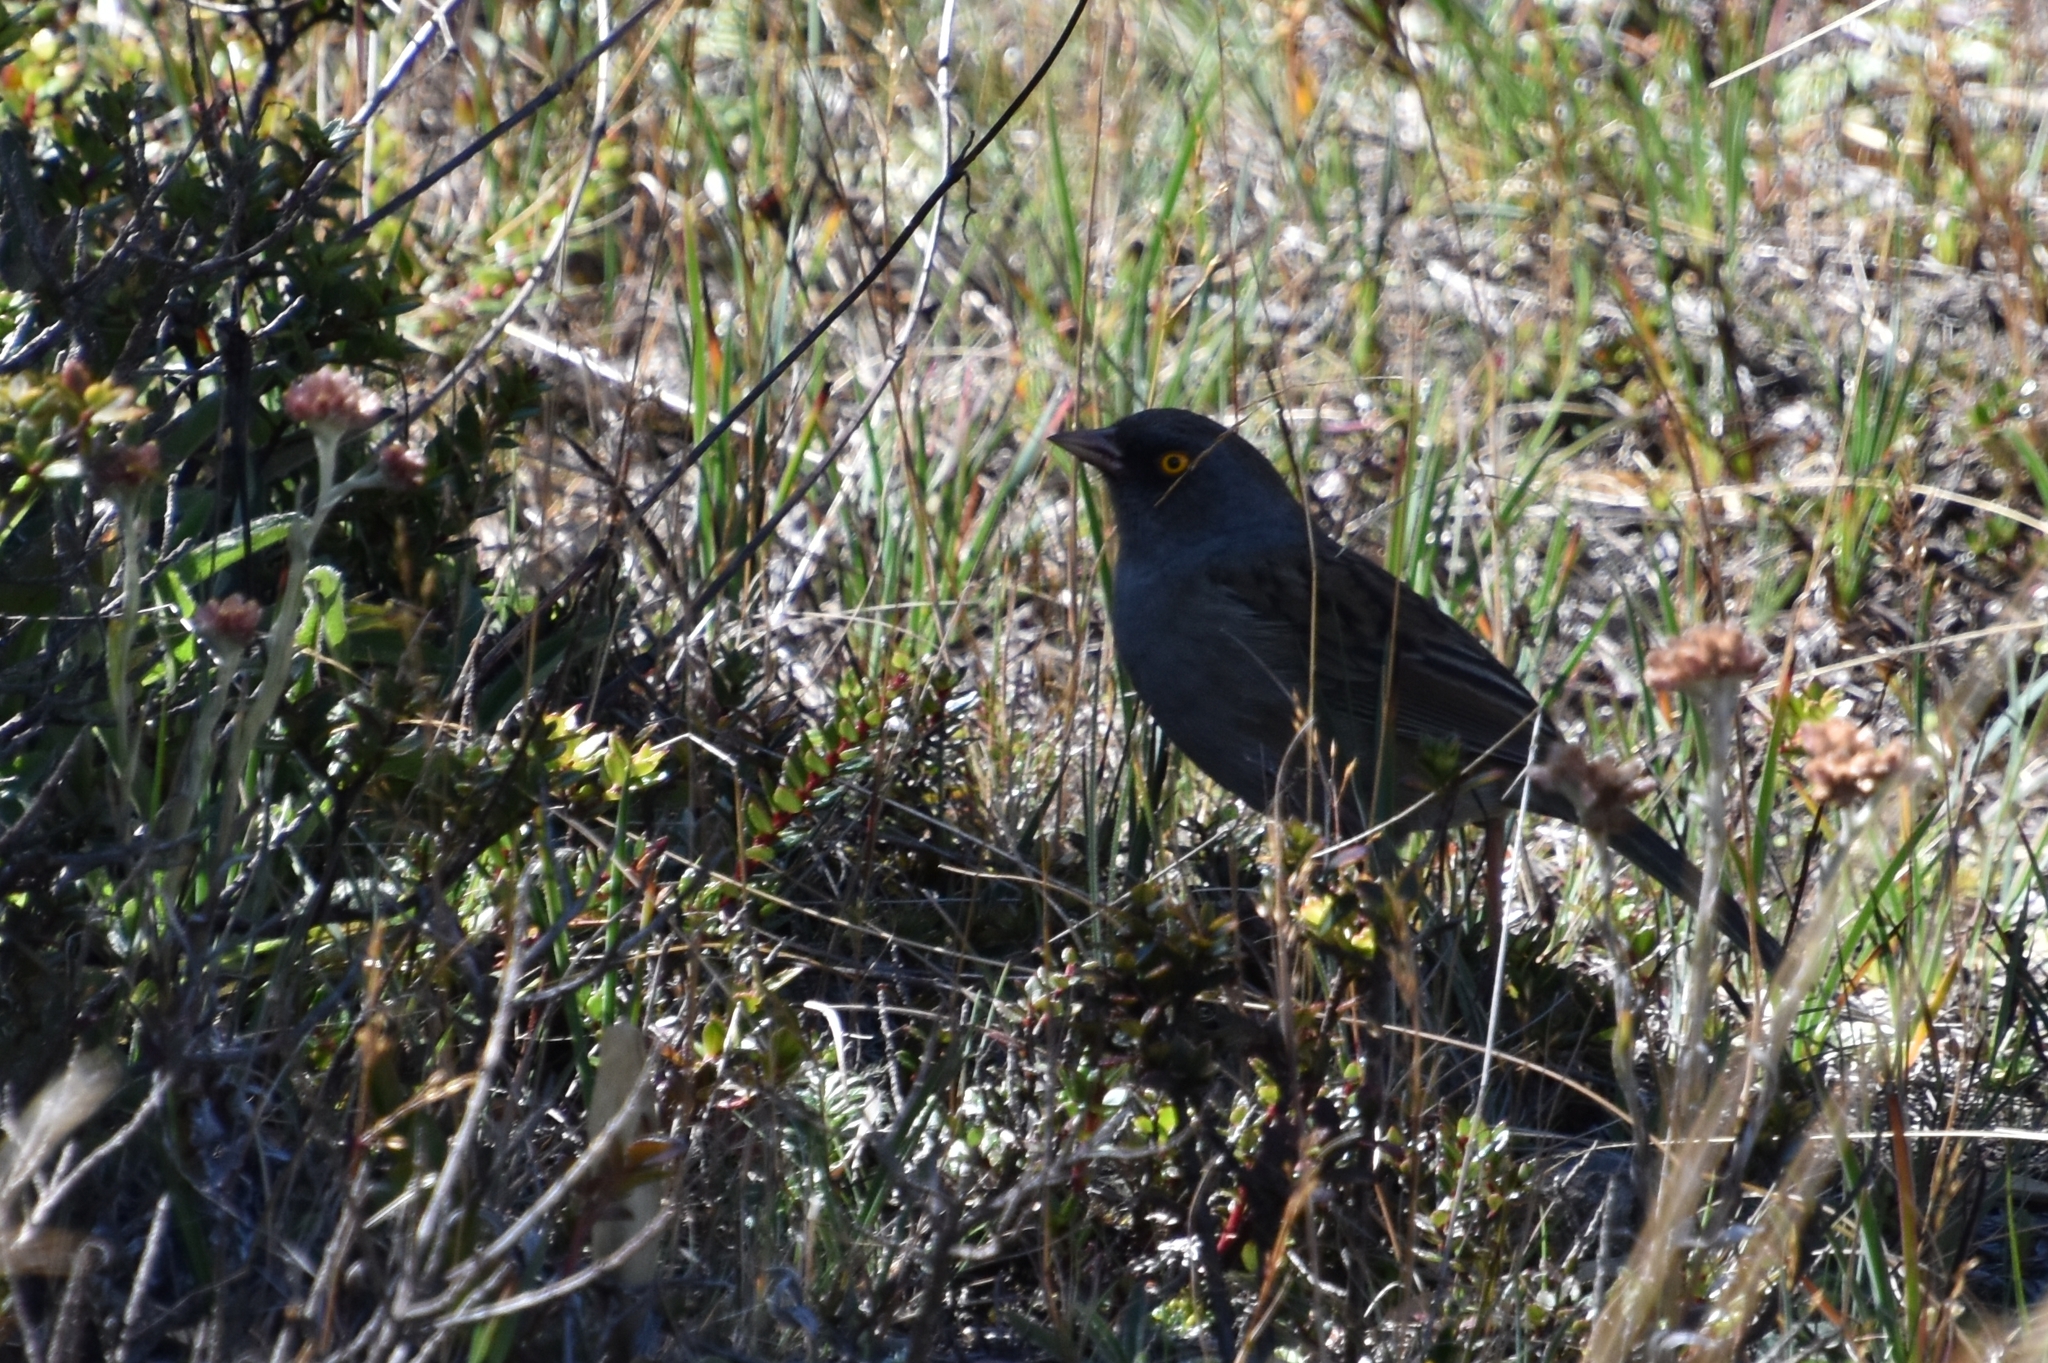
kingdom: Animalia
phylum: Chordata
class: Aves
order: Passeriformes
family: Passerellidae
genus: Junco
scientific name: Junco vulcani
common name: Volcano junco
